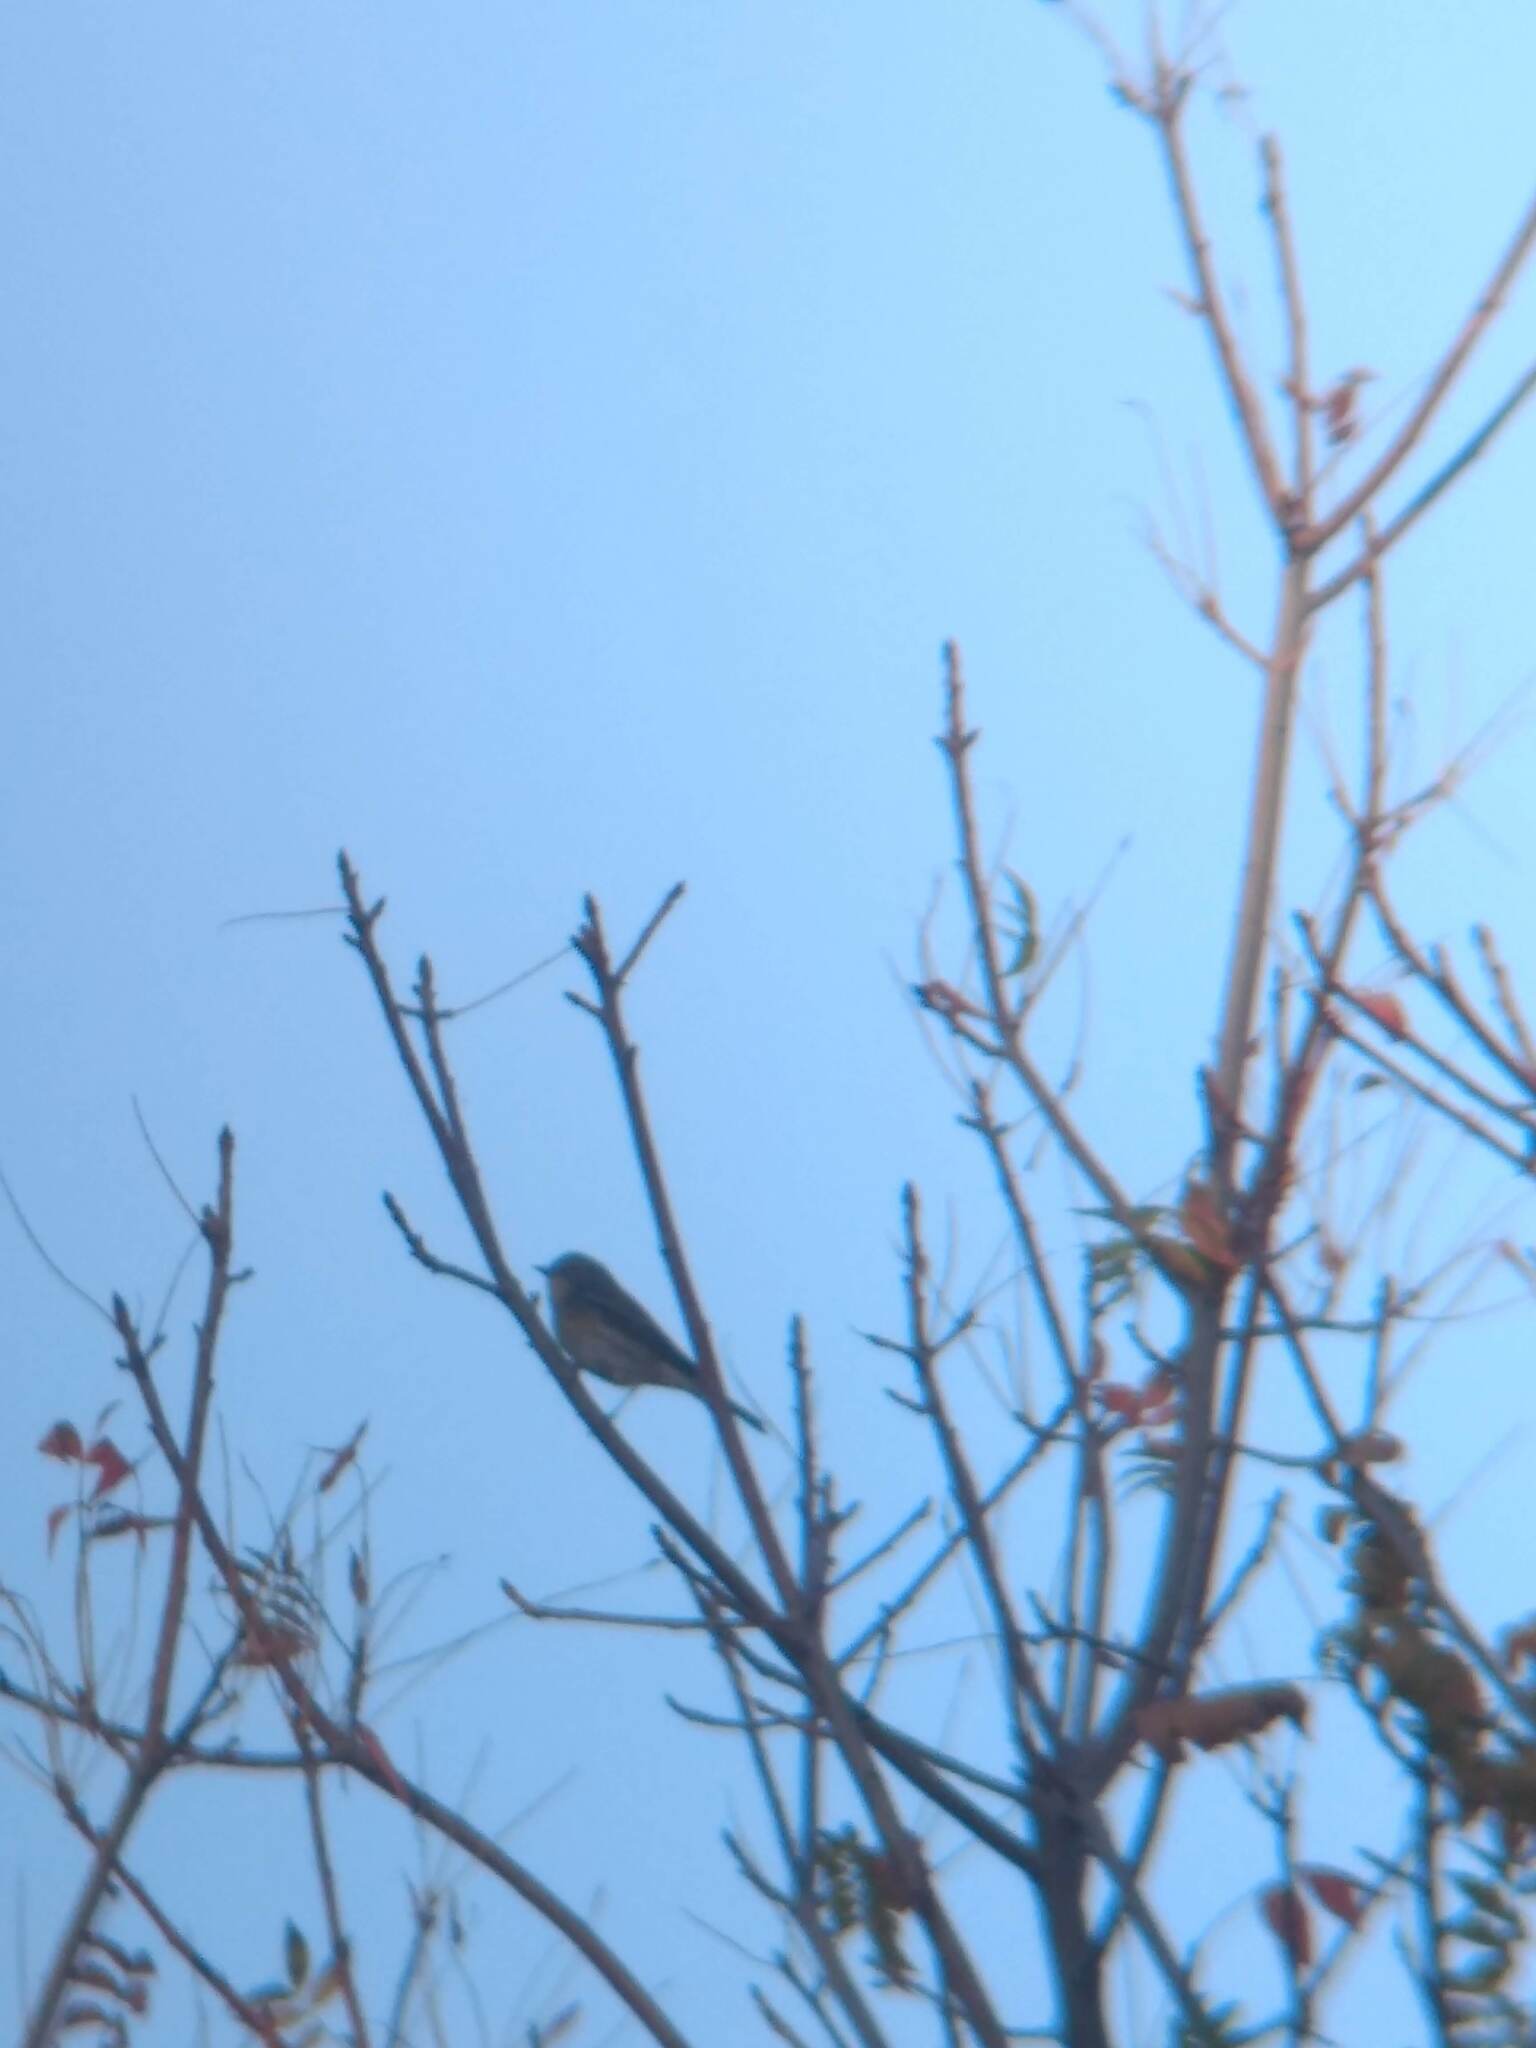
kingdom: Animalia
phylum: Chordata
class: Aves
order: Passeriformes
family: Parulidae
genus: Setophaga
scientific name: Setophaga coronata
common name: Myrtle warbler
